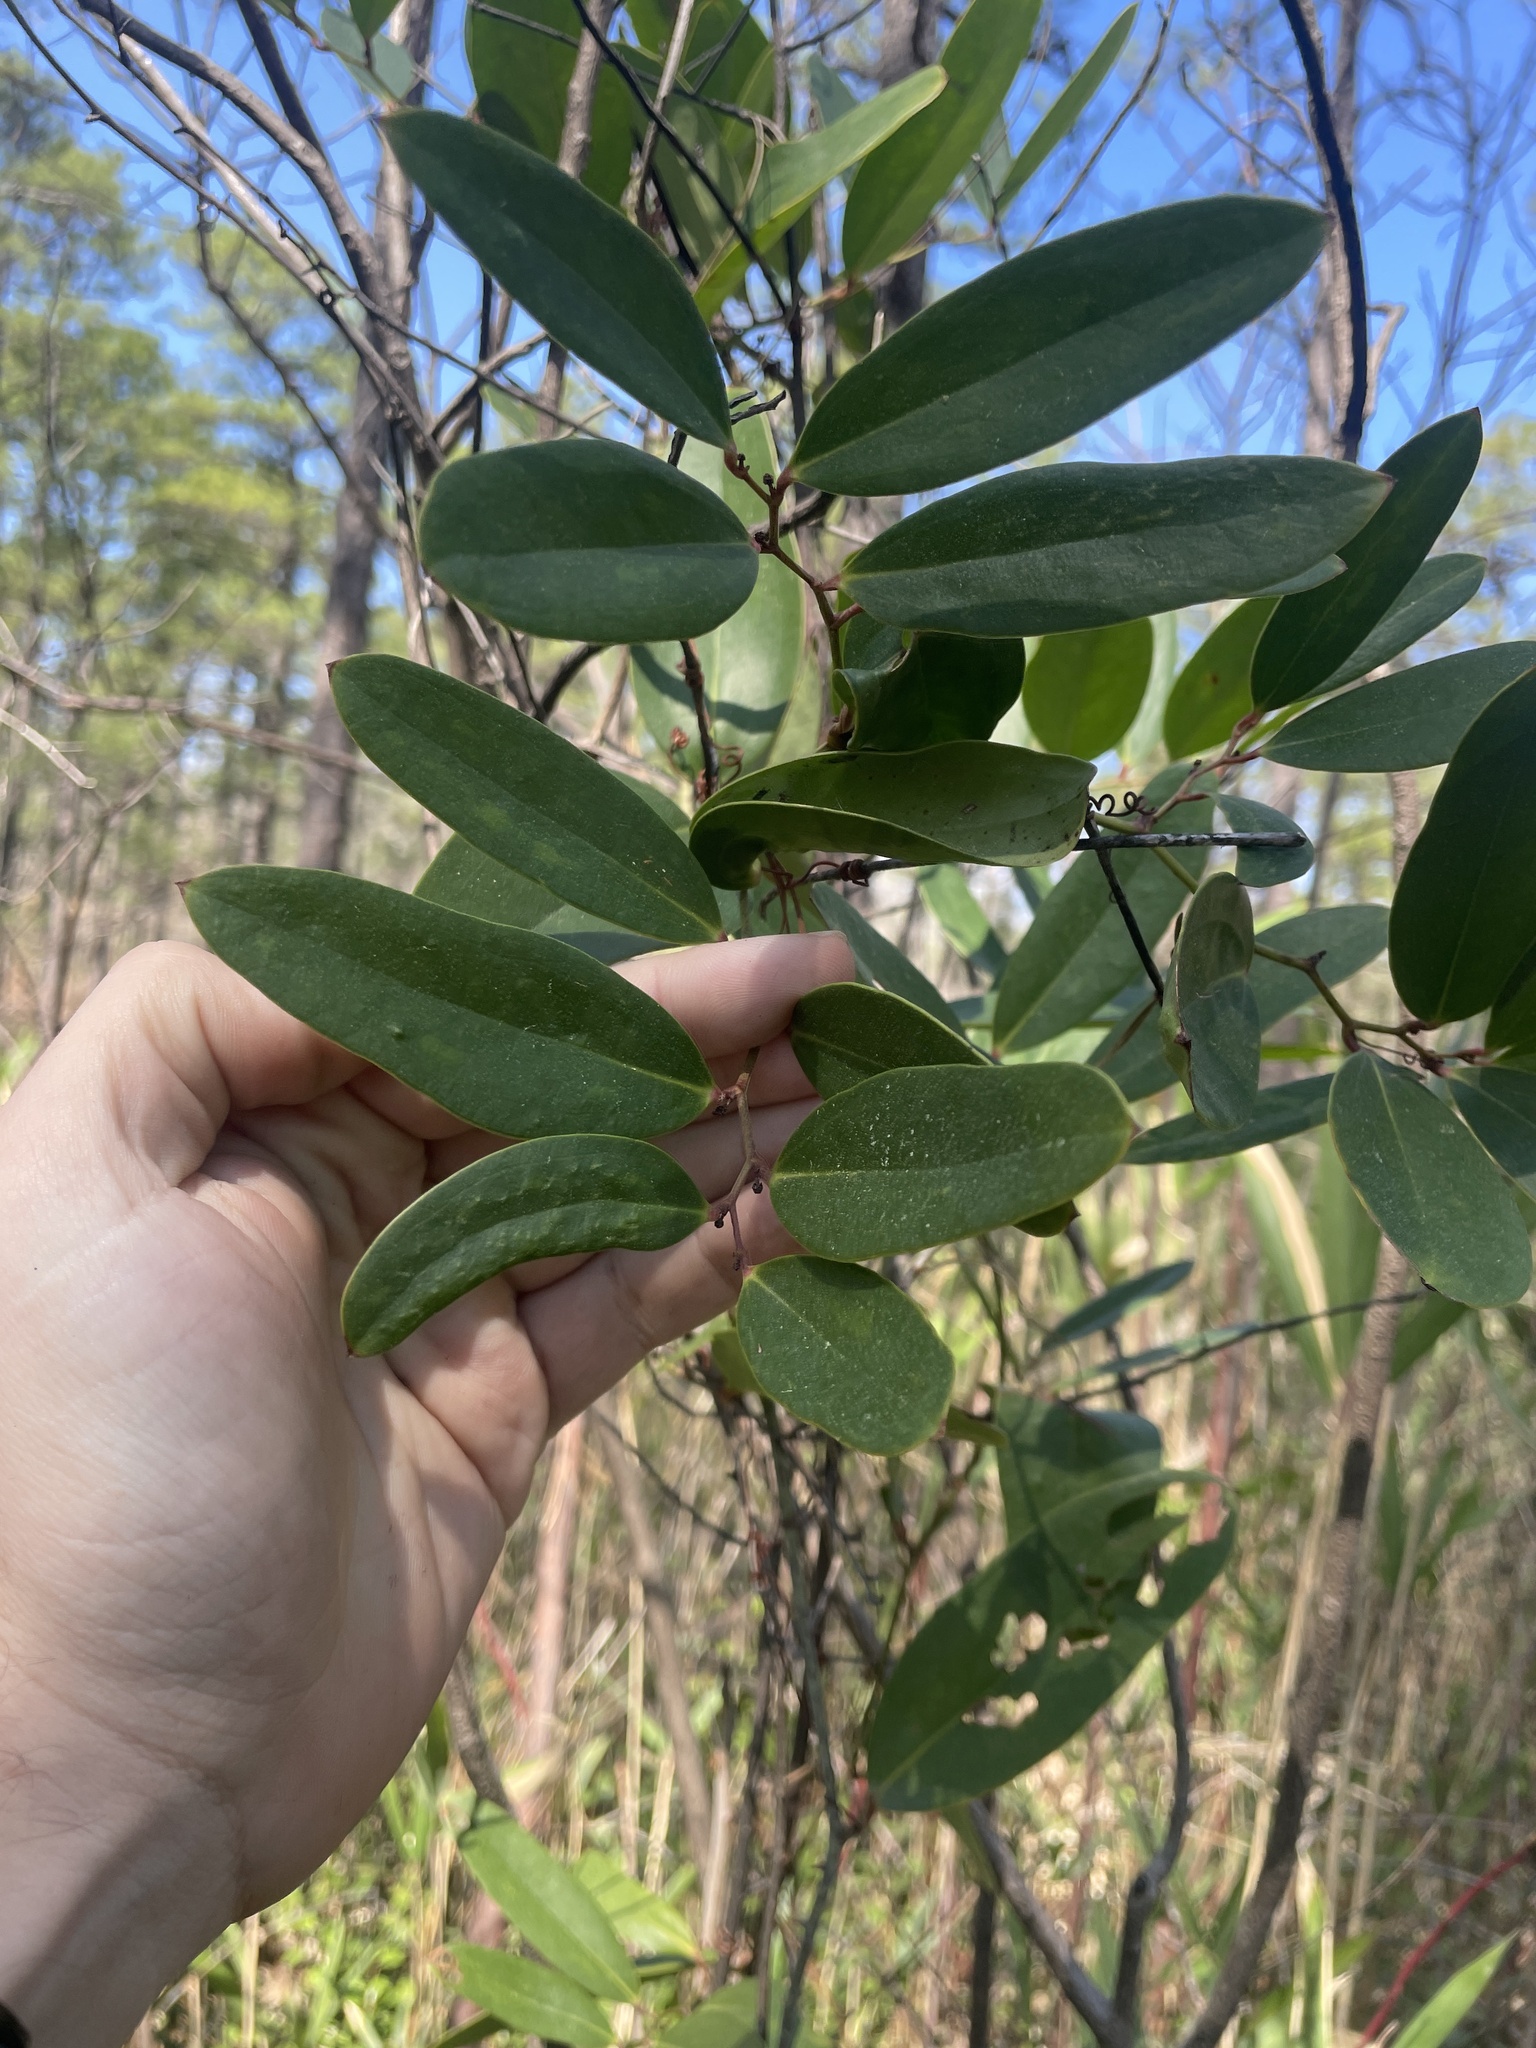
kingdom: Plantae
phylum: Tracheophyta
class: Liliopsida
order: Liliales
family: Smilacaceae
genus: Smilax
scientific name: Smilax laurifolia
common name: Bamboovine
